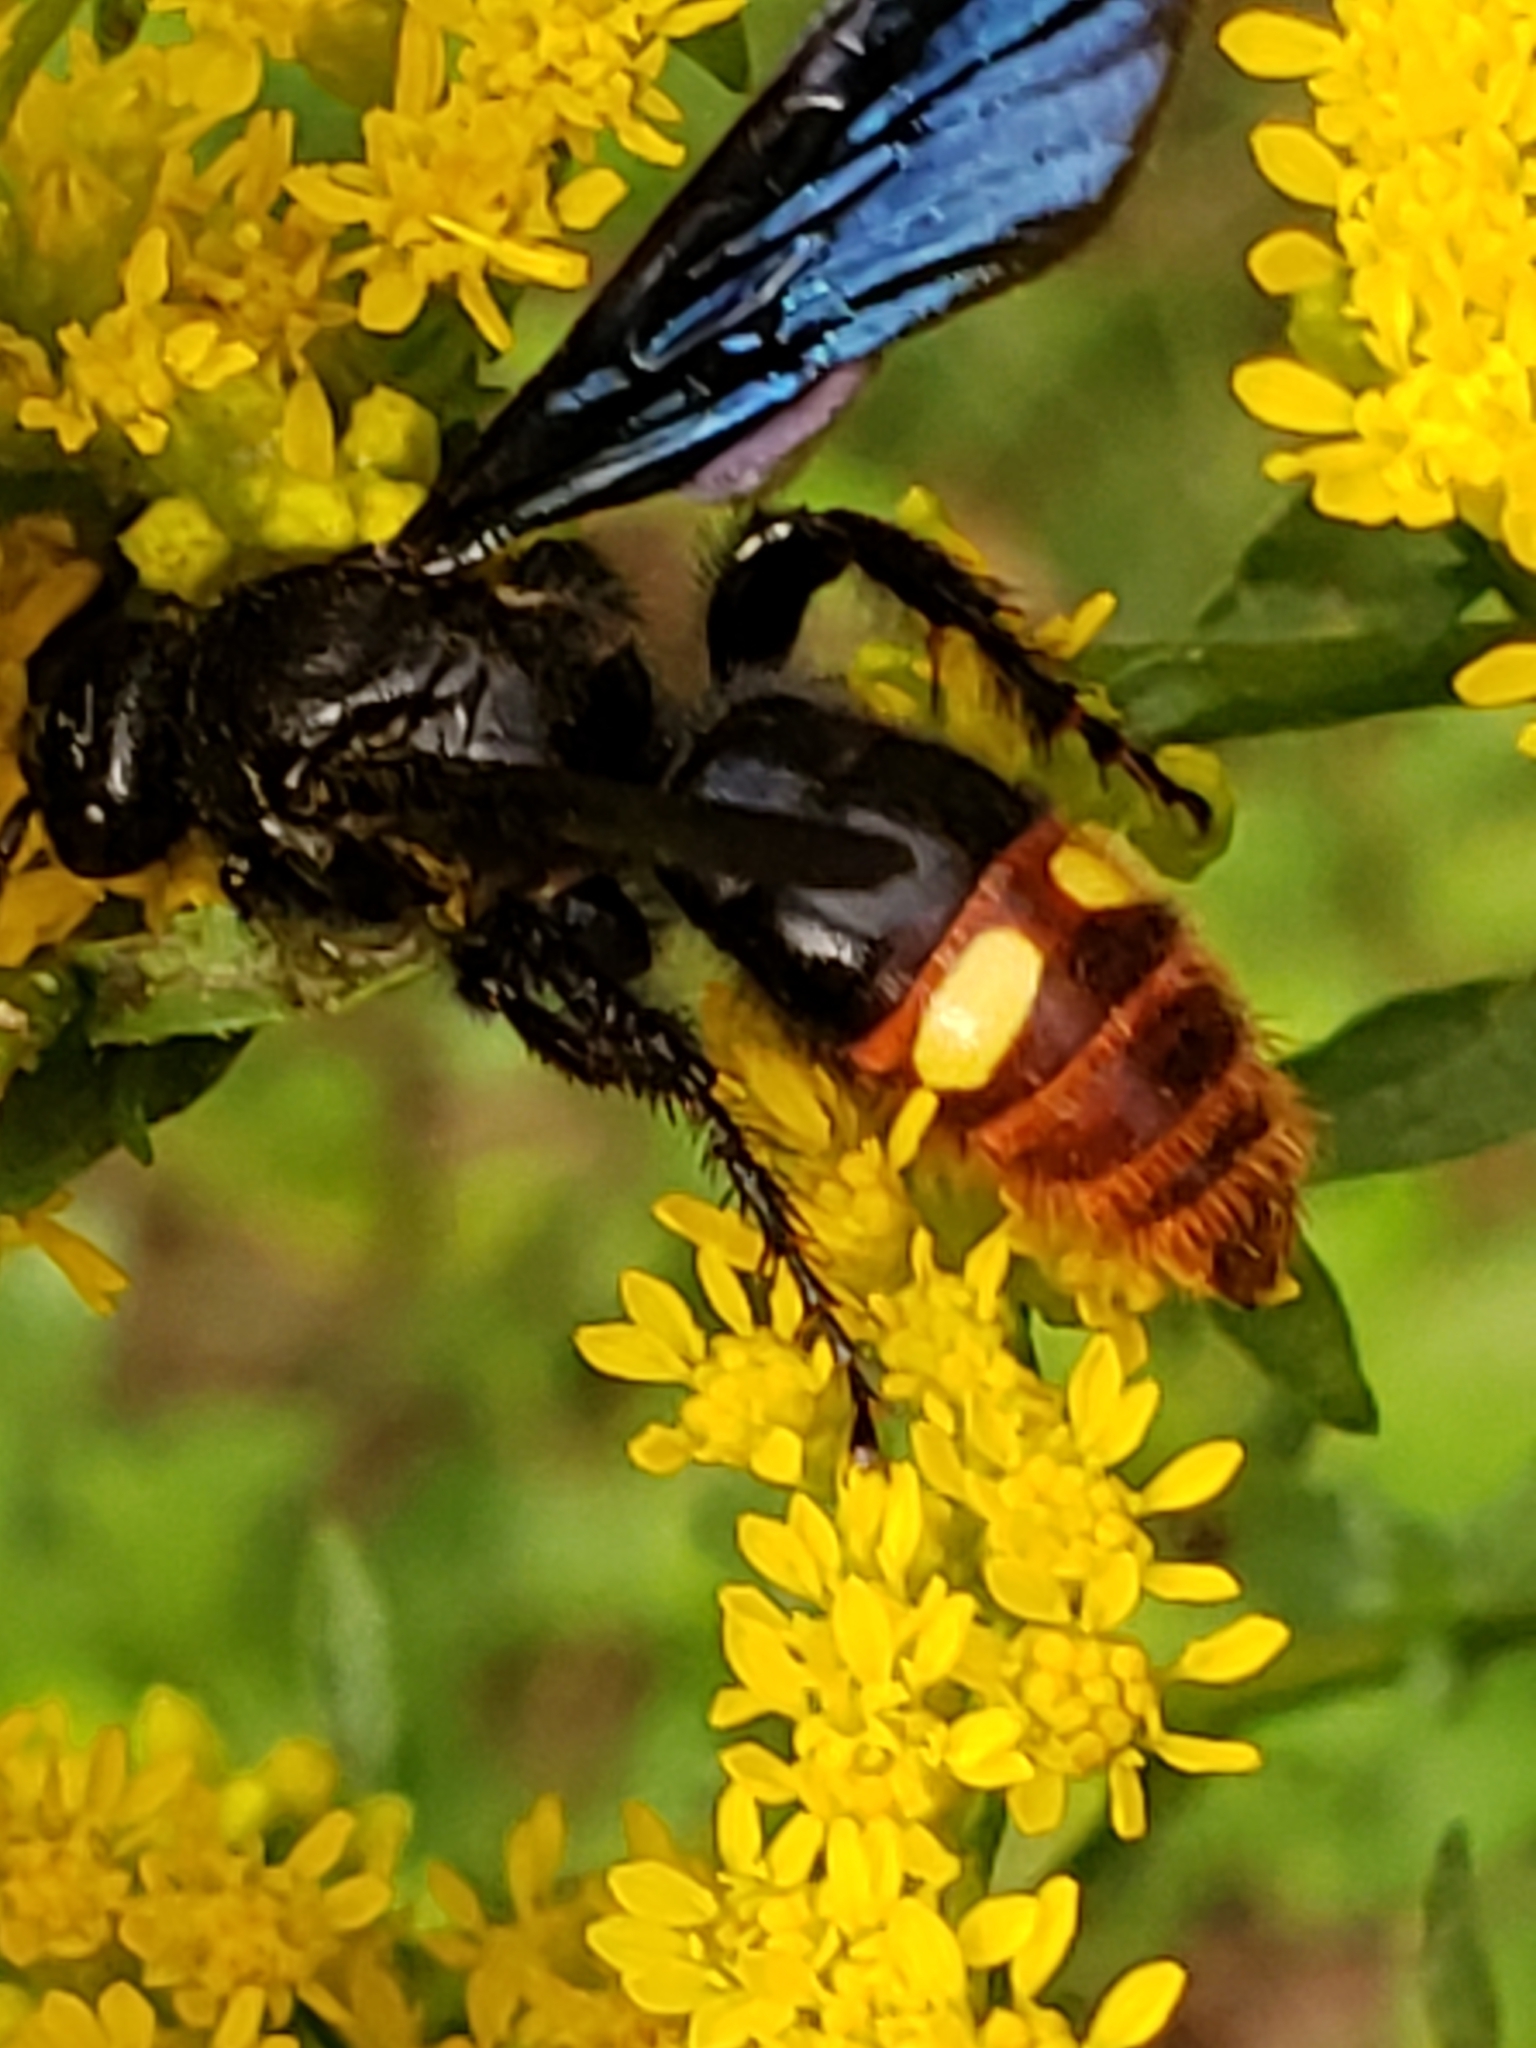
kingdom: Animalia
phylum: Arthropoda
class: Insecta
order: Hymenoptera
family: Scoliidae
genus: Scolia
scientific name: Scolia dubia
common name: Blue-winged scoliid wasp
